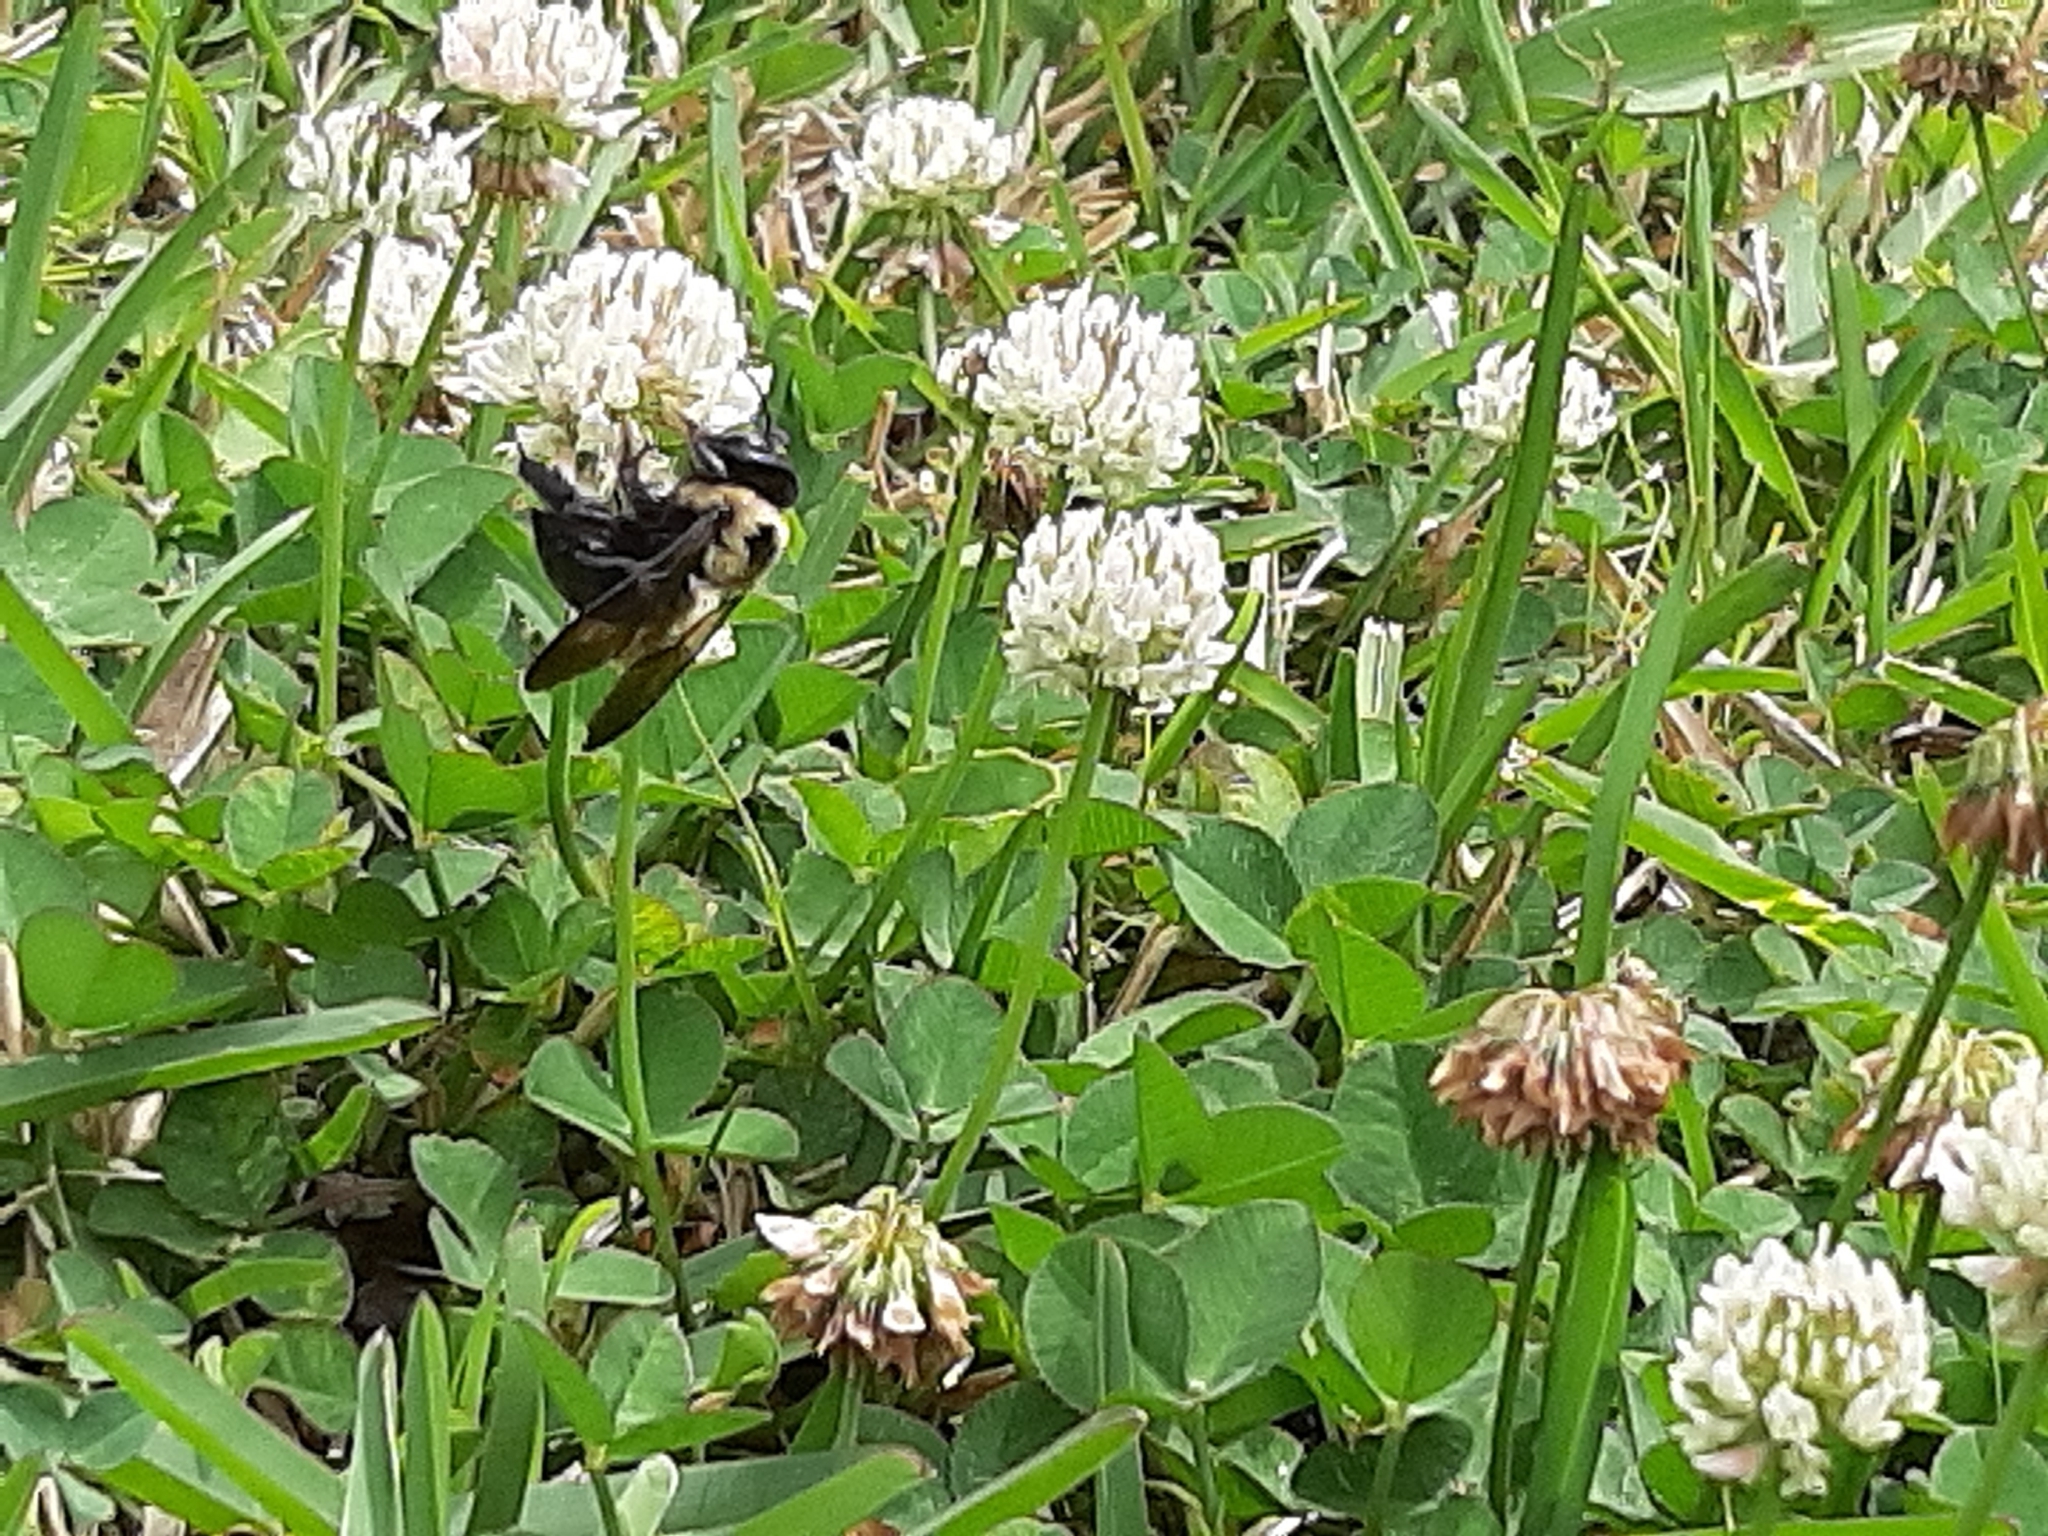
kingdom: Animalia
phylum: Arthropoda
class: Insecta
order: Hymenoptera
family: Apidae
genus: Xylocopa
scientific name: Xylocopa virginica
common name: Carpenter bee
